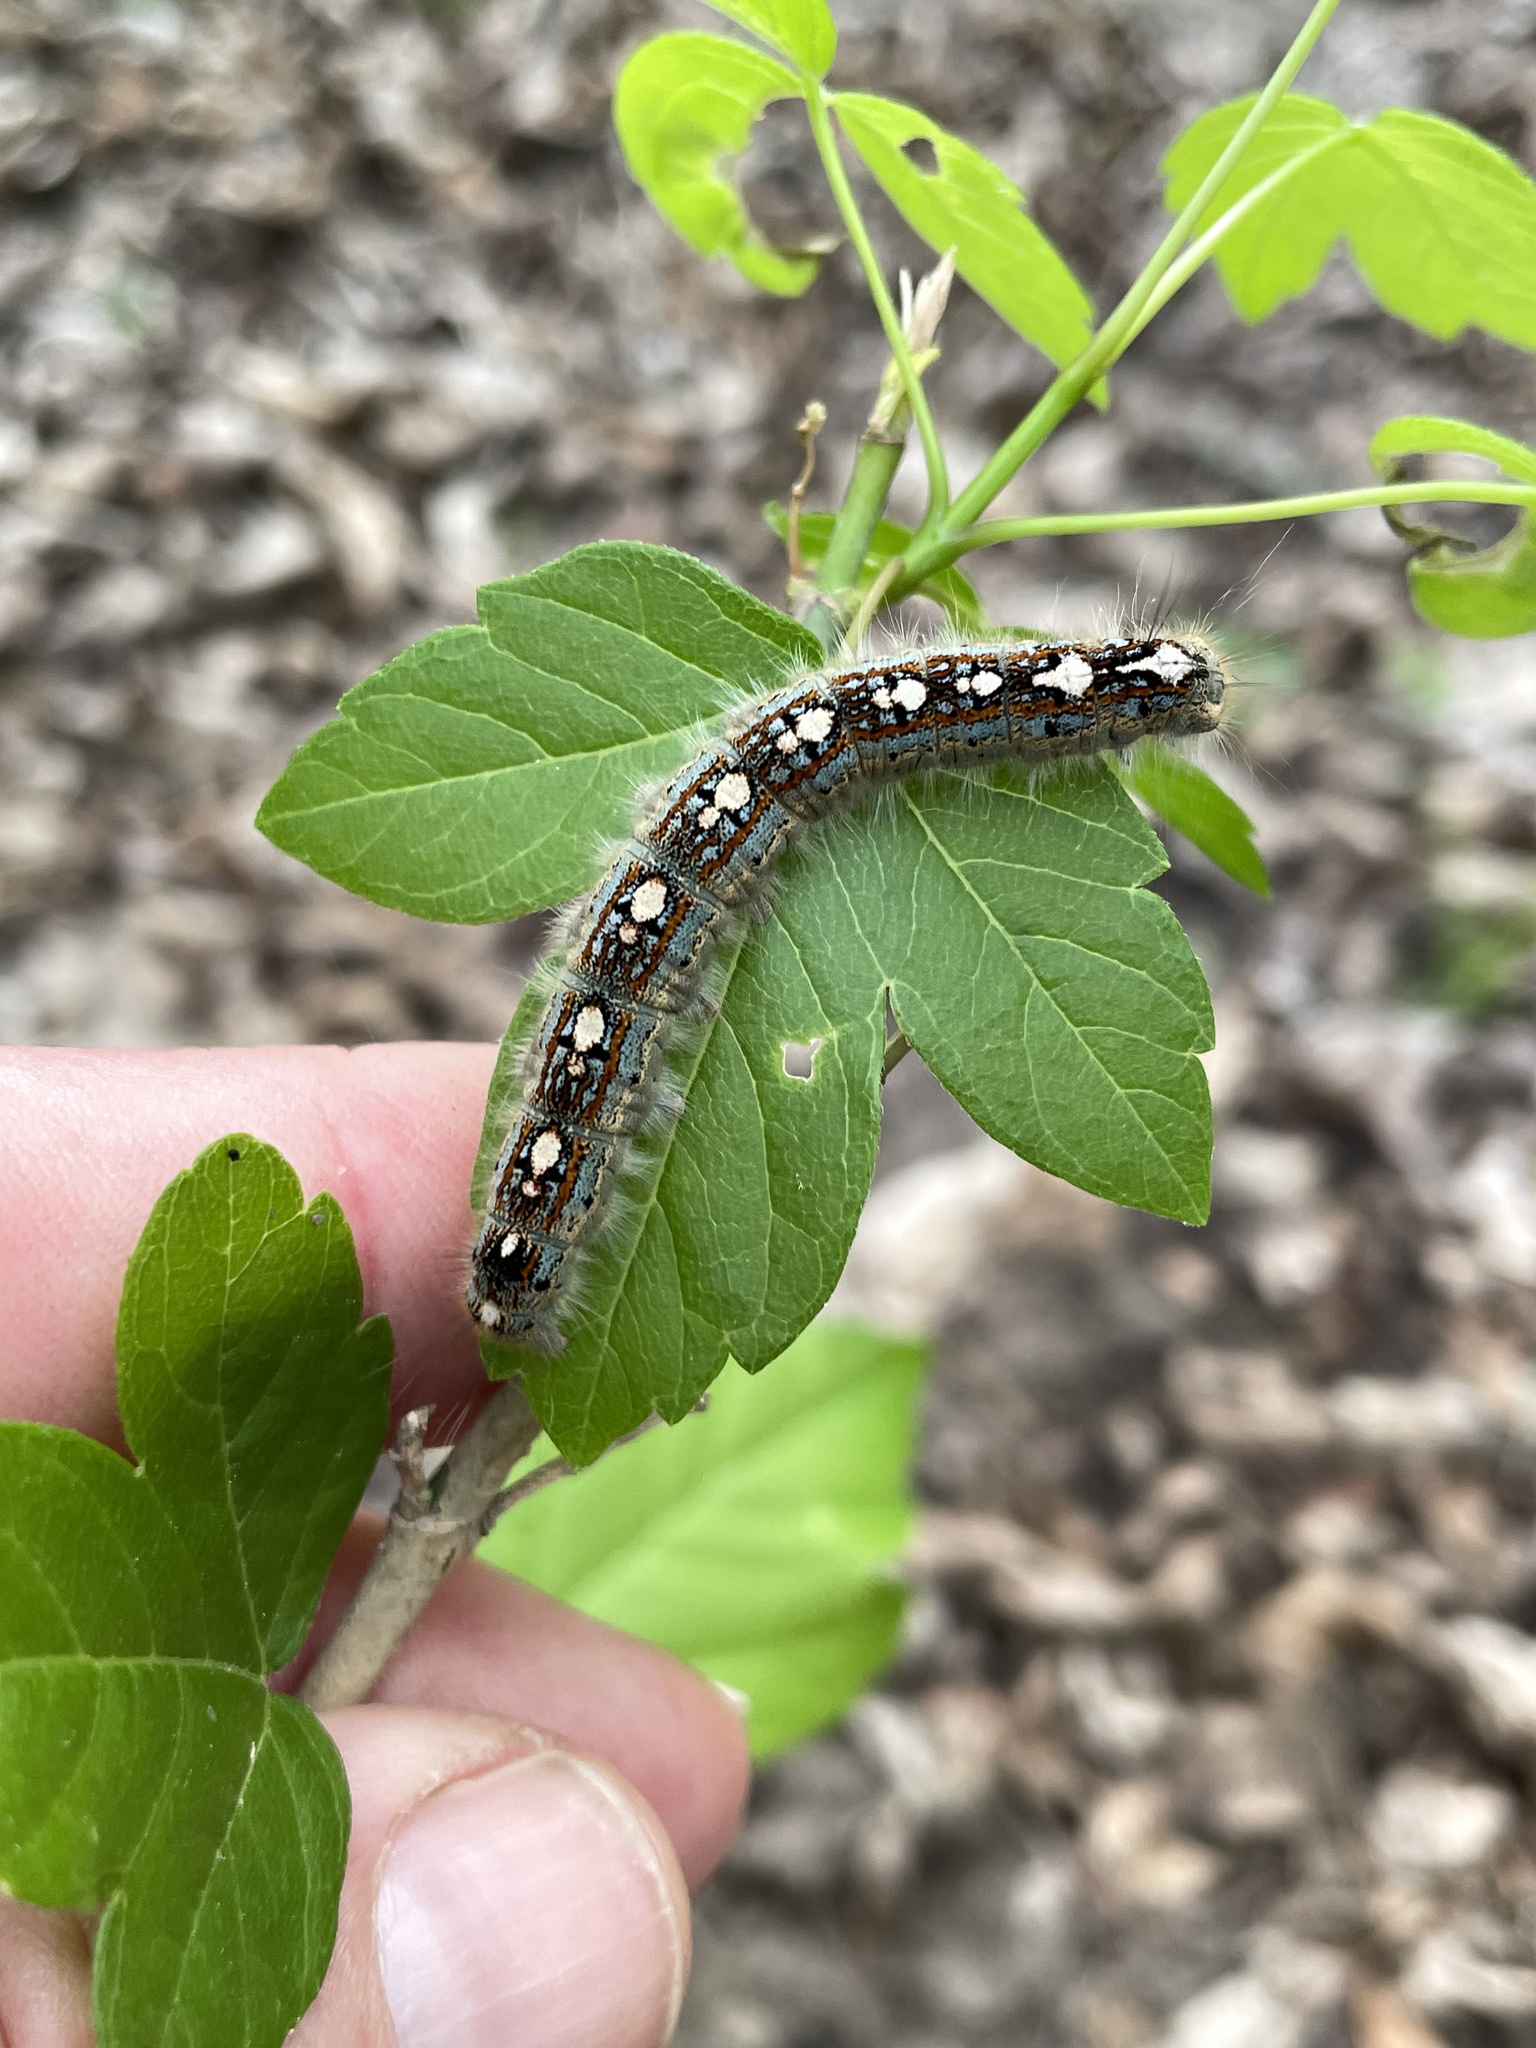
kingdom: Animalia
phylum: Arthropoda
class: Insecta
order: Lepidoptera
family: Lasiocampidae
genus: Malacosoma
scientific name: Malacosoma disstria
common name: Forest tent caterpillar
